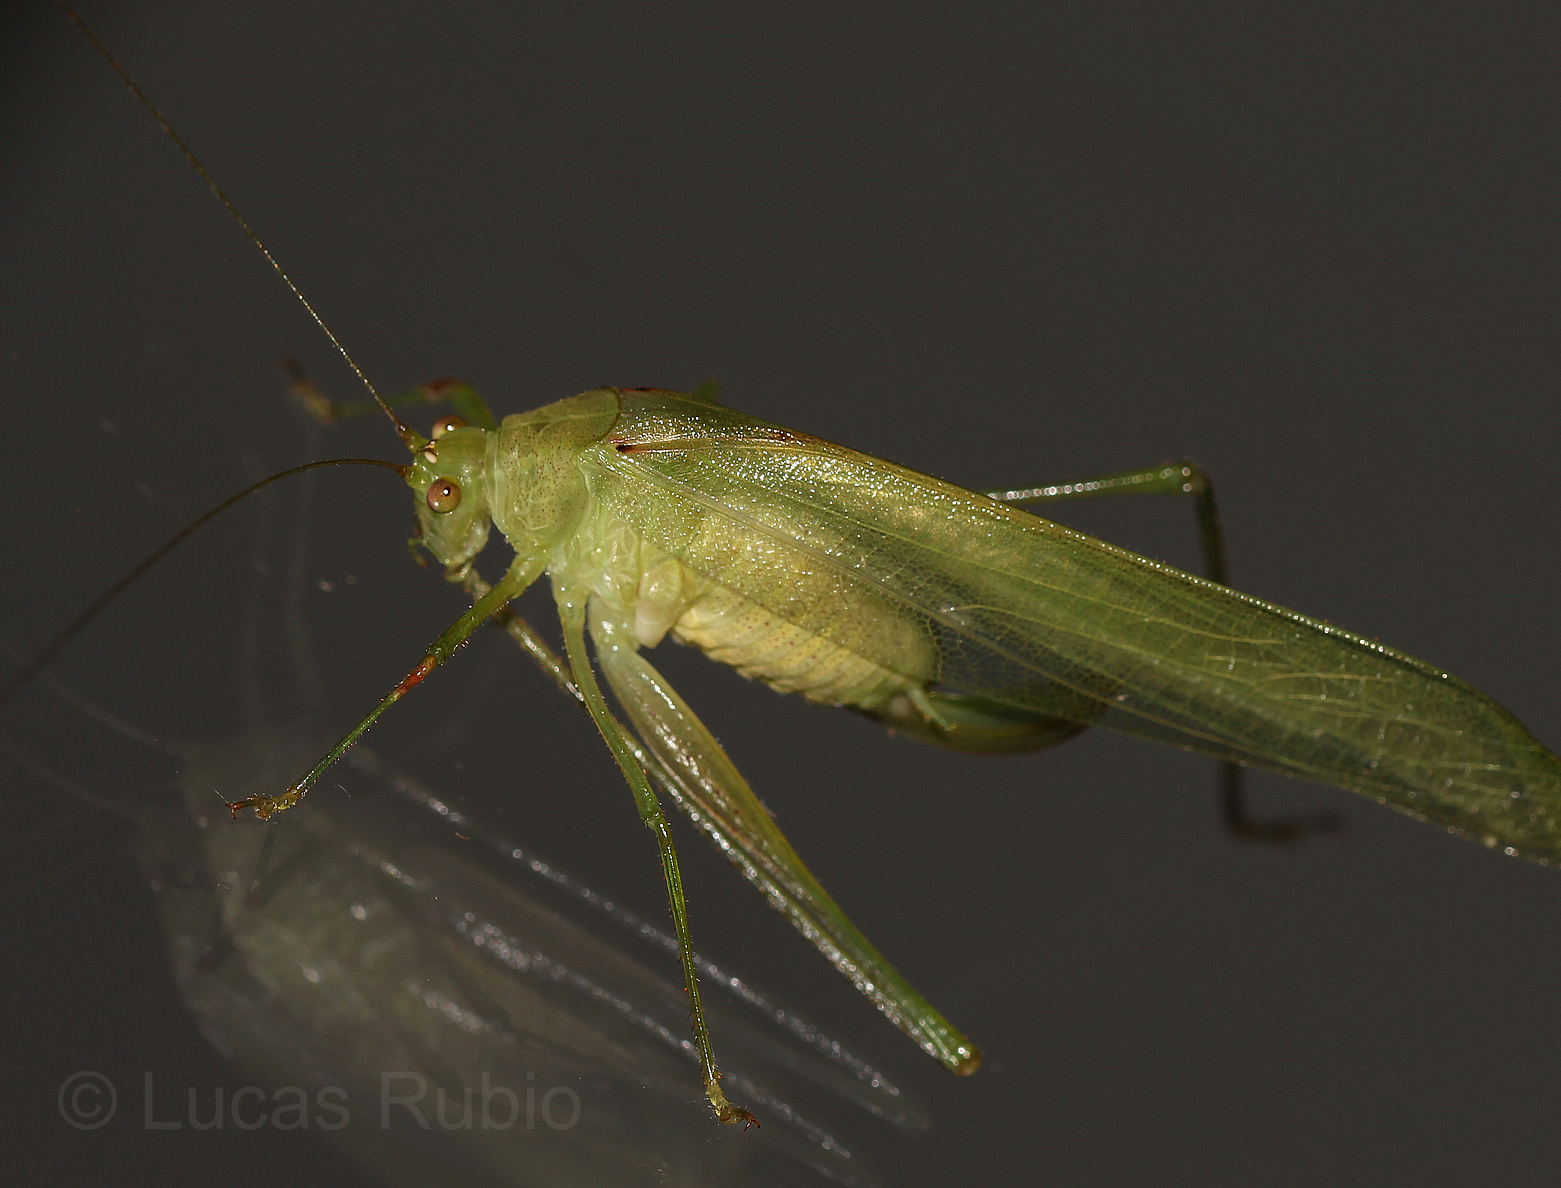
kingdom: Animalia
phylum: Arthropoda
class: Insecta
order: Orthoptera
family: Tettigoniidae
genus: Anaulacomera
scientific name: Anaulacomera argentina
